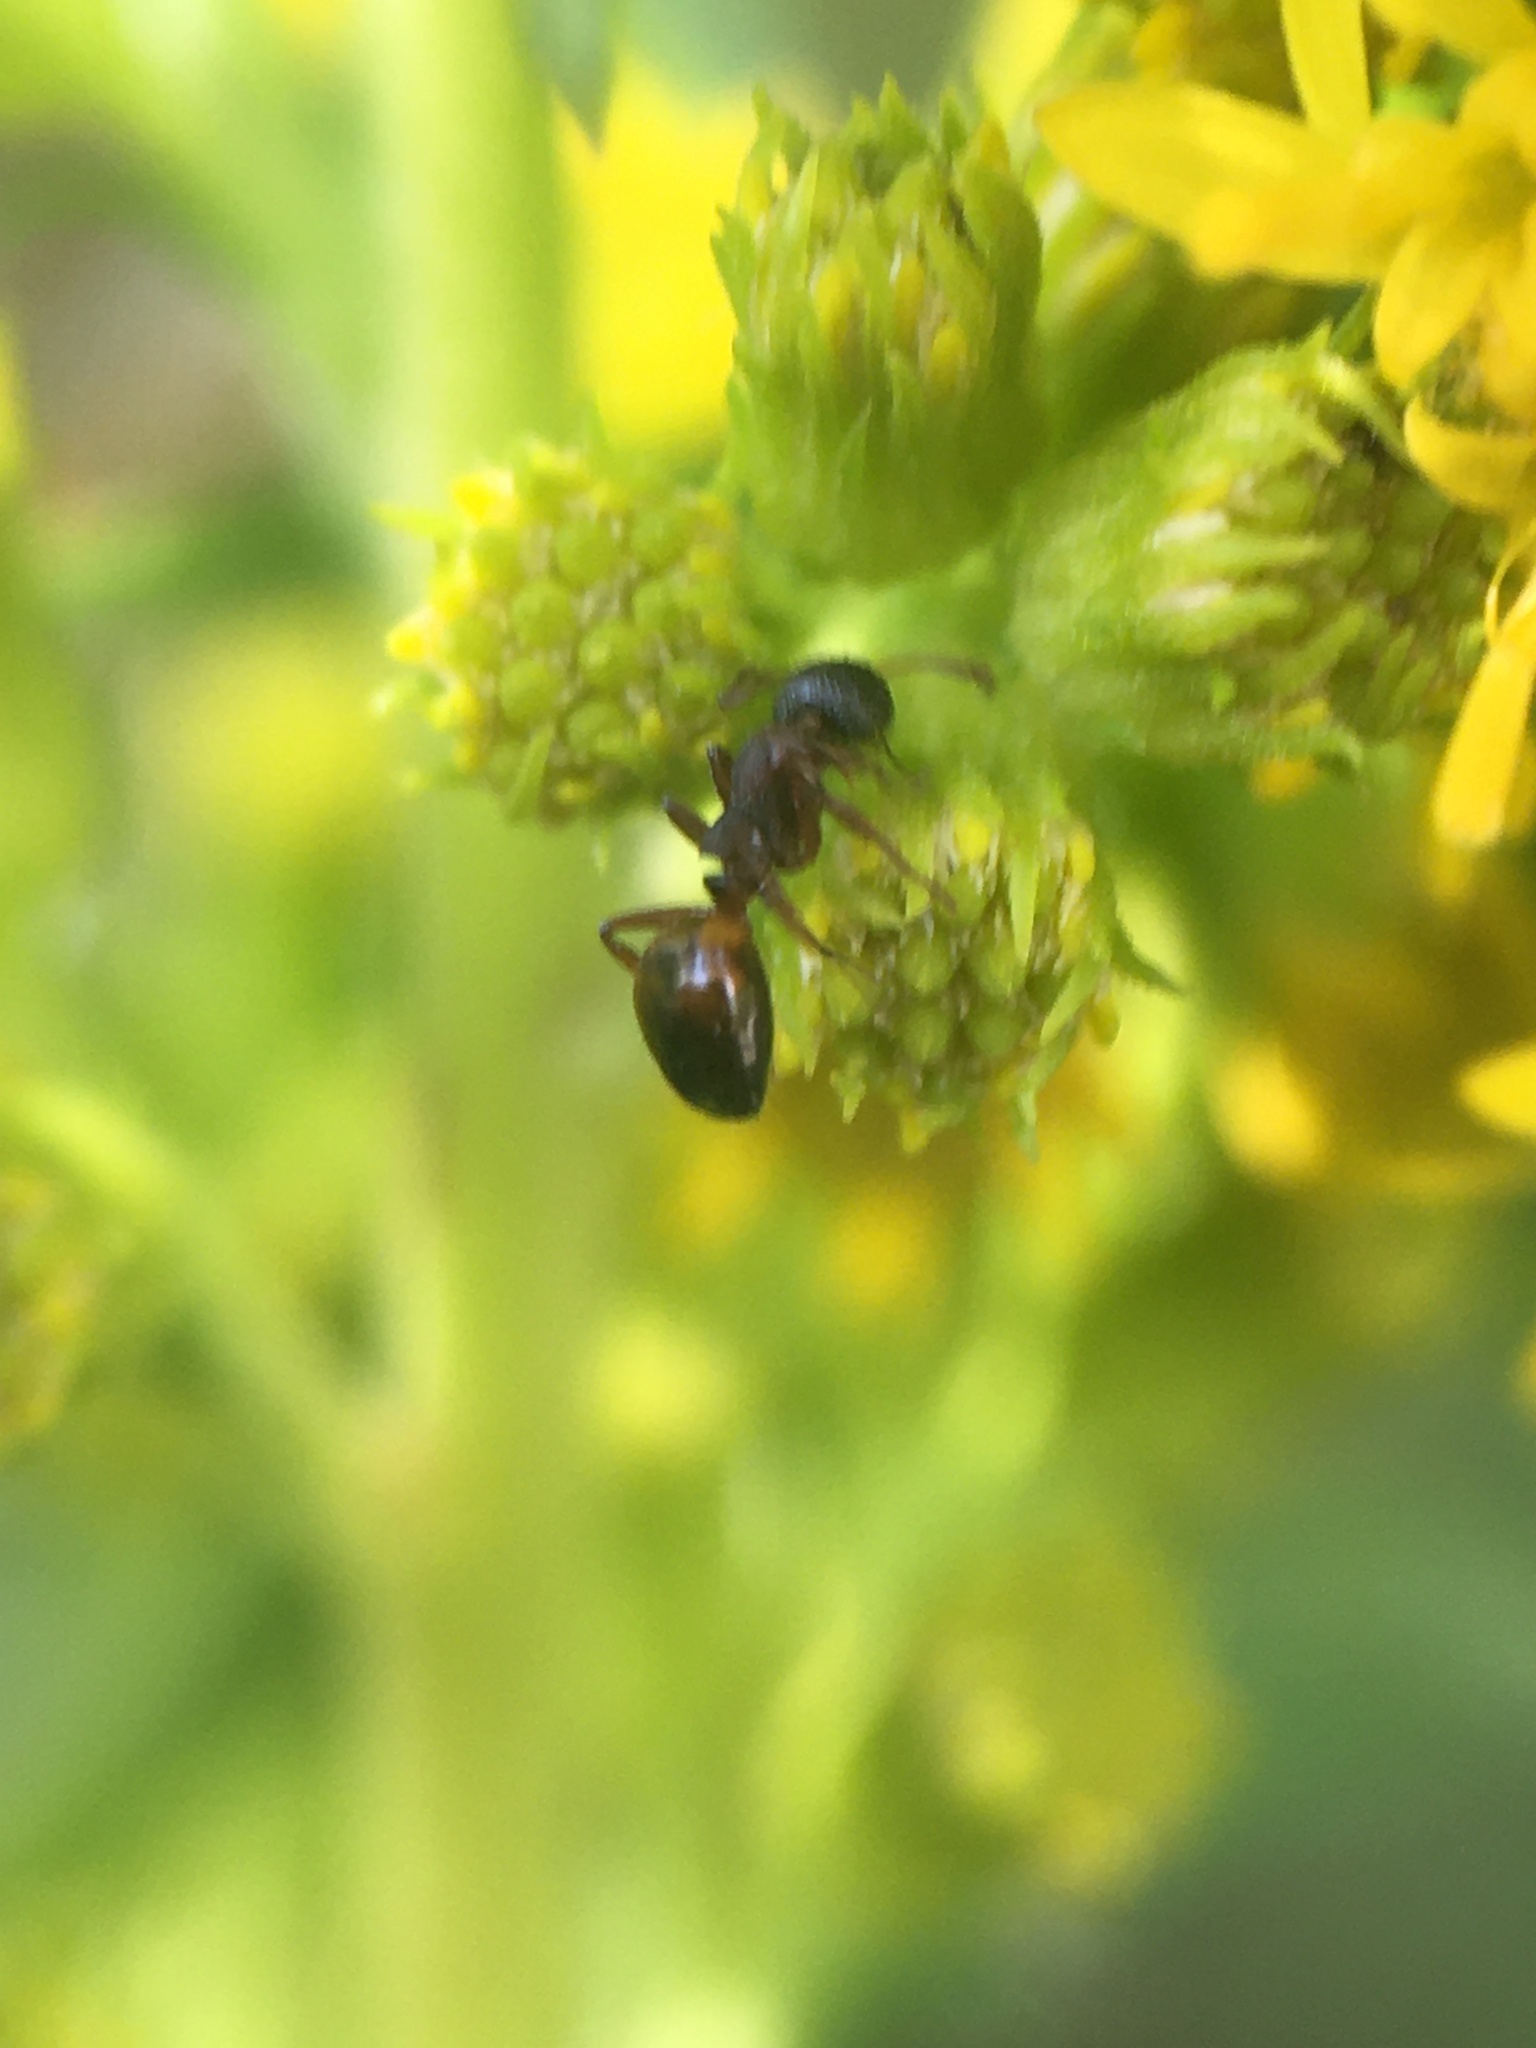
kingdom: Animalia
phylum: Arthropoda
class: Insecta
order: Hymenoptera
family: Formicidae
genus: Dolichoderus
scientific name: Dolichoderus plagiatus
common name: Mottled dolichoderus
